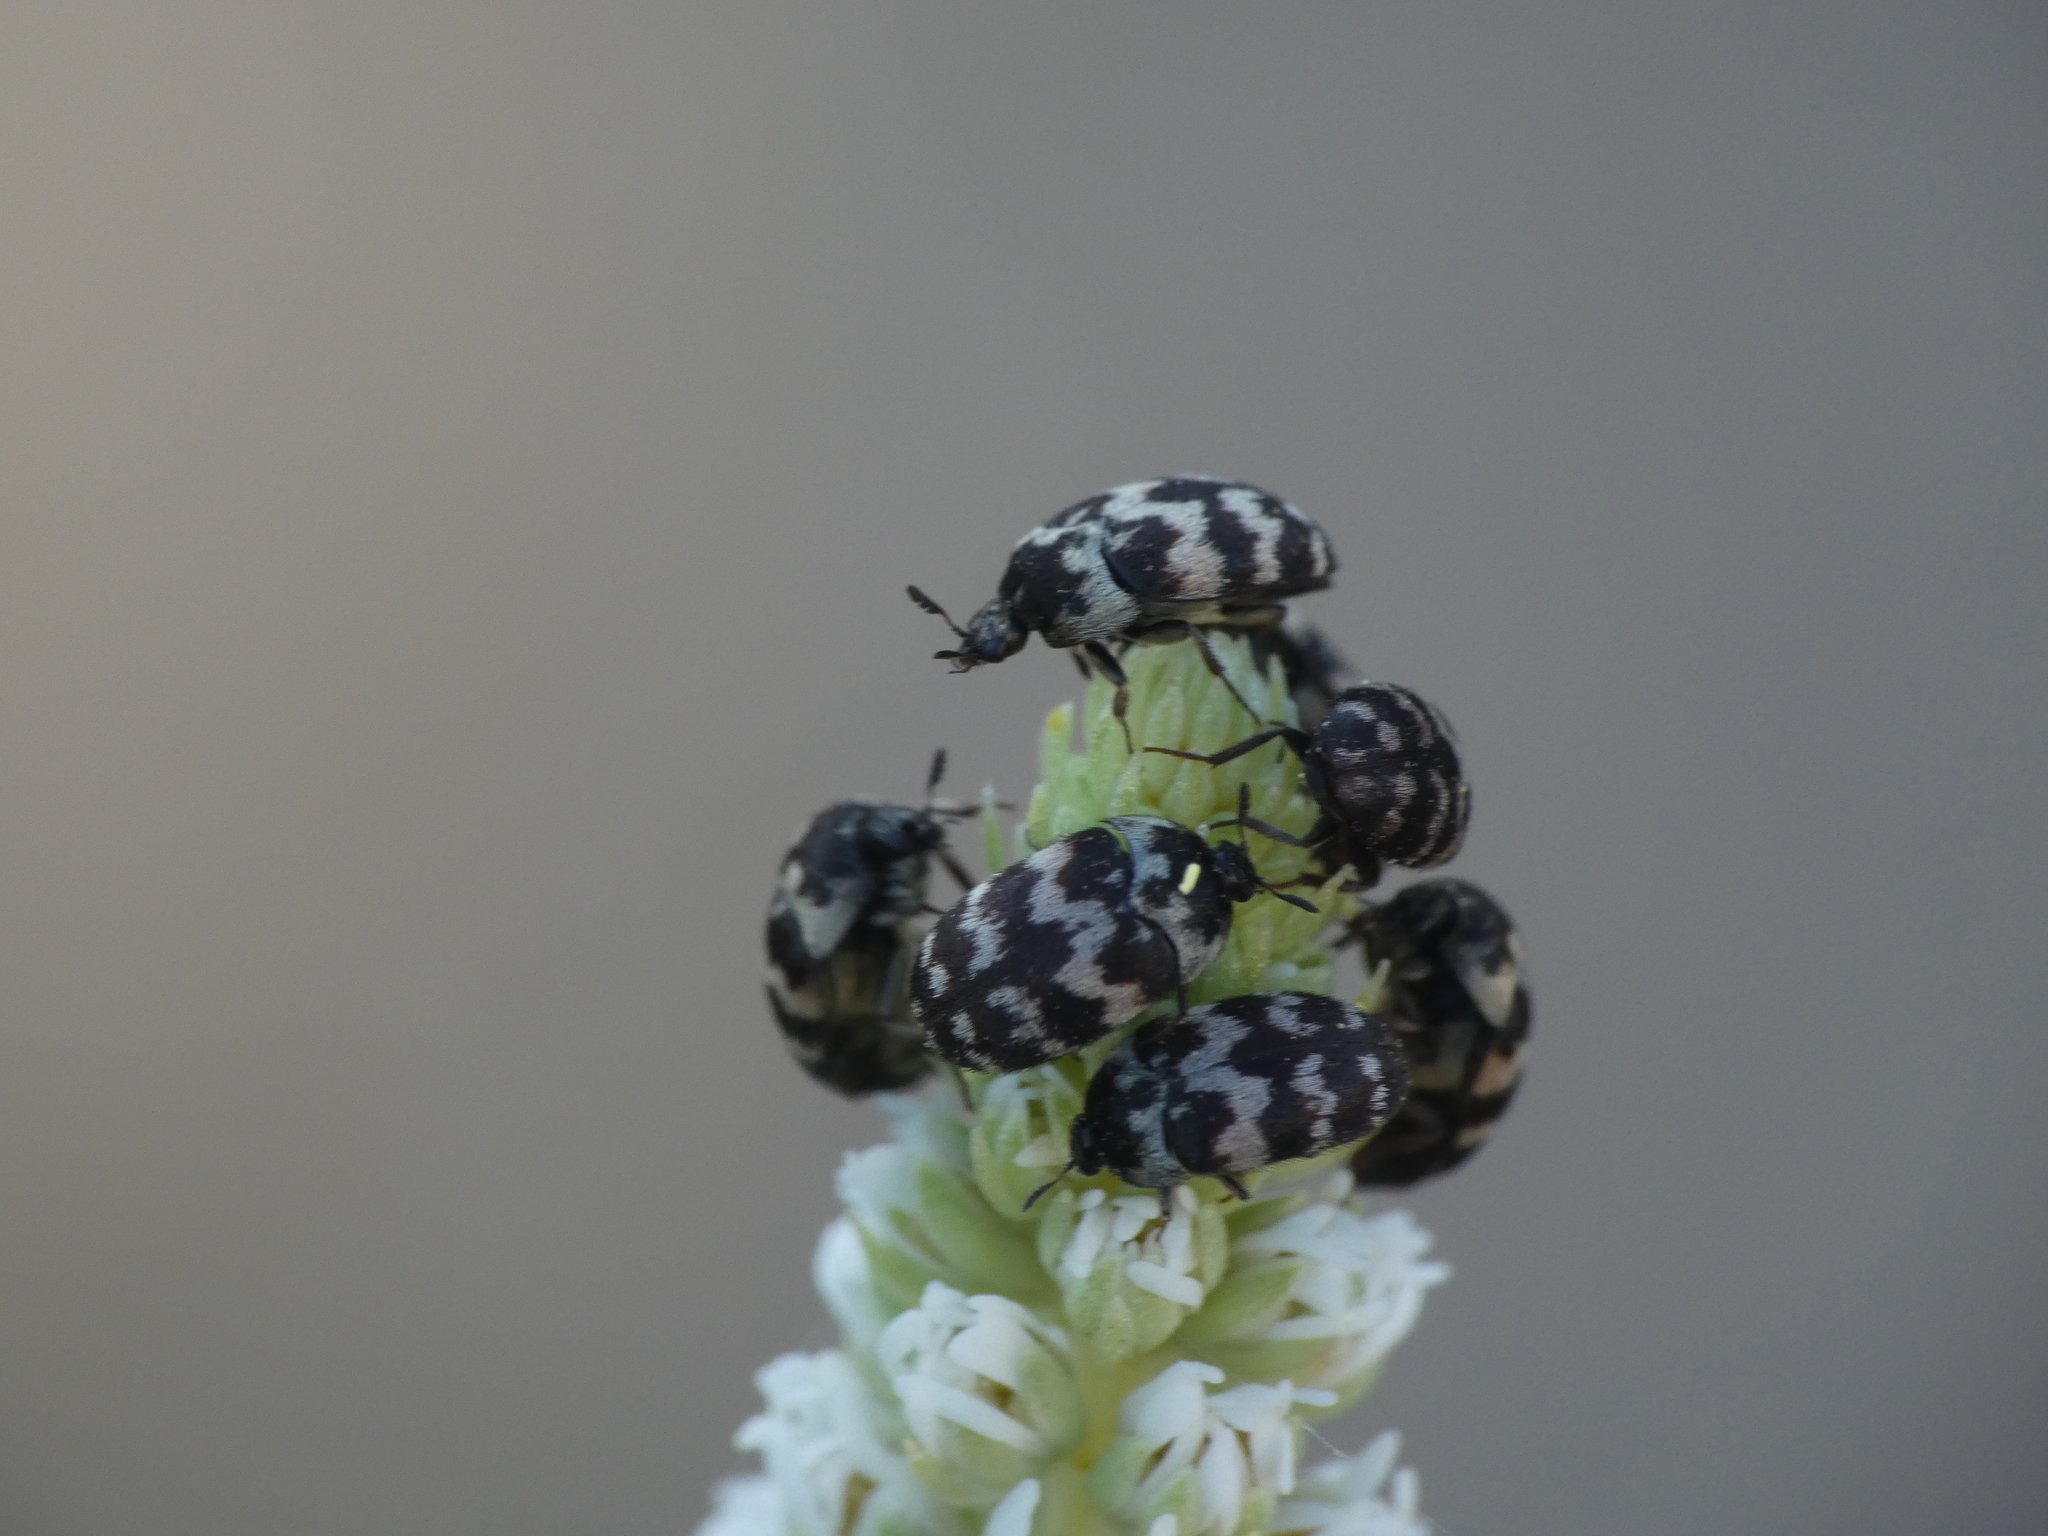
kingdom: Animalia
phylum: Arthropoda
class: Insecta
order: Coleoptera
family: Dermestidae
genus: Attagenus
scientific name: Attagenus trifasciatus
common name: Carpet beetle
